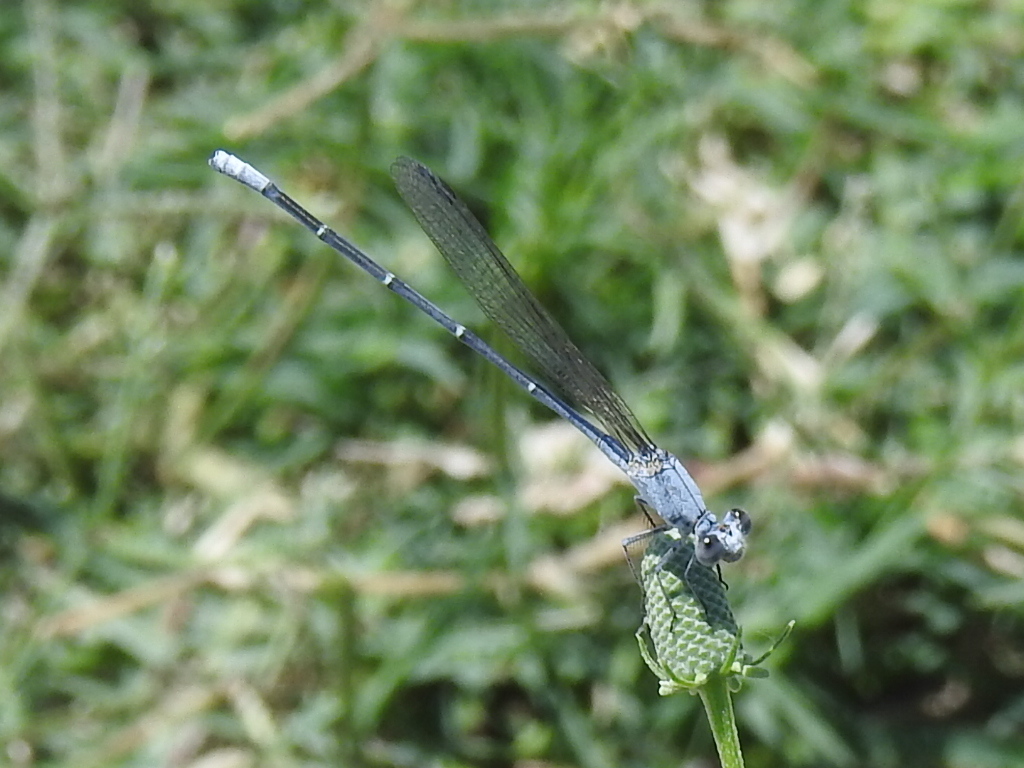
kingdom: Animalia
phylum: Arthropoda
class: Insecta
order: Odonata
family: Coenagrionidae
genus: Argia
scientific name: Argia moesta
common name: Powdered dancer
